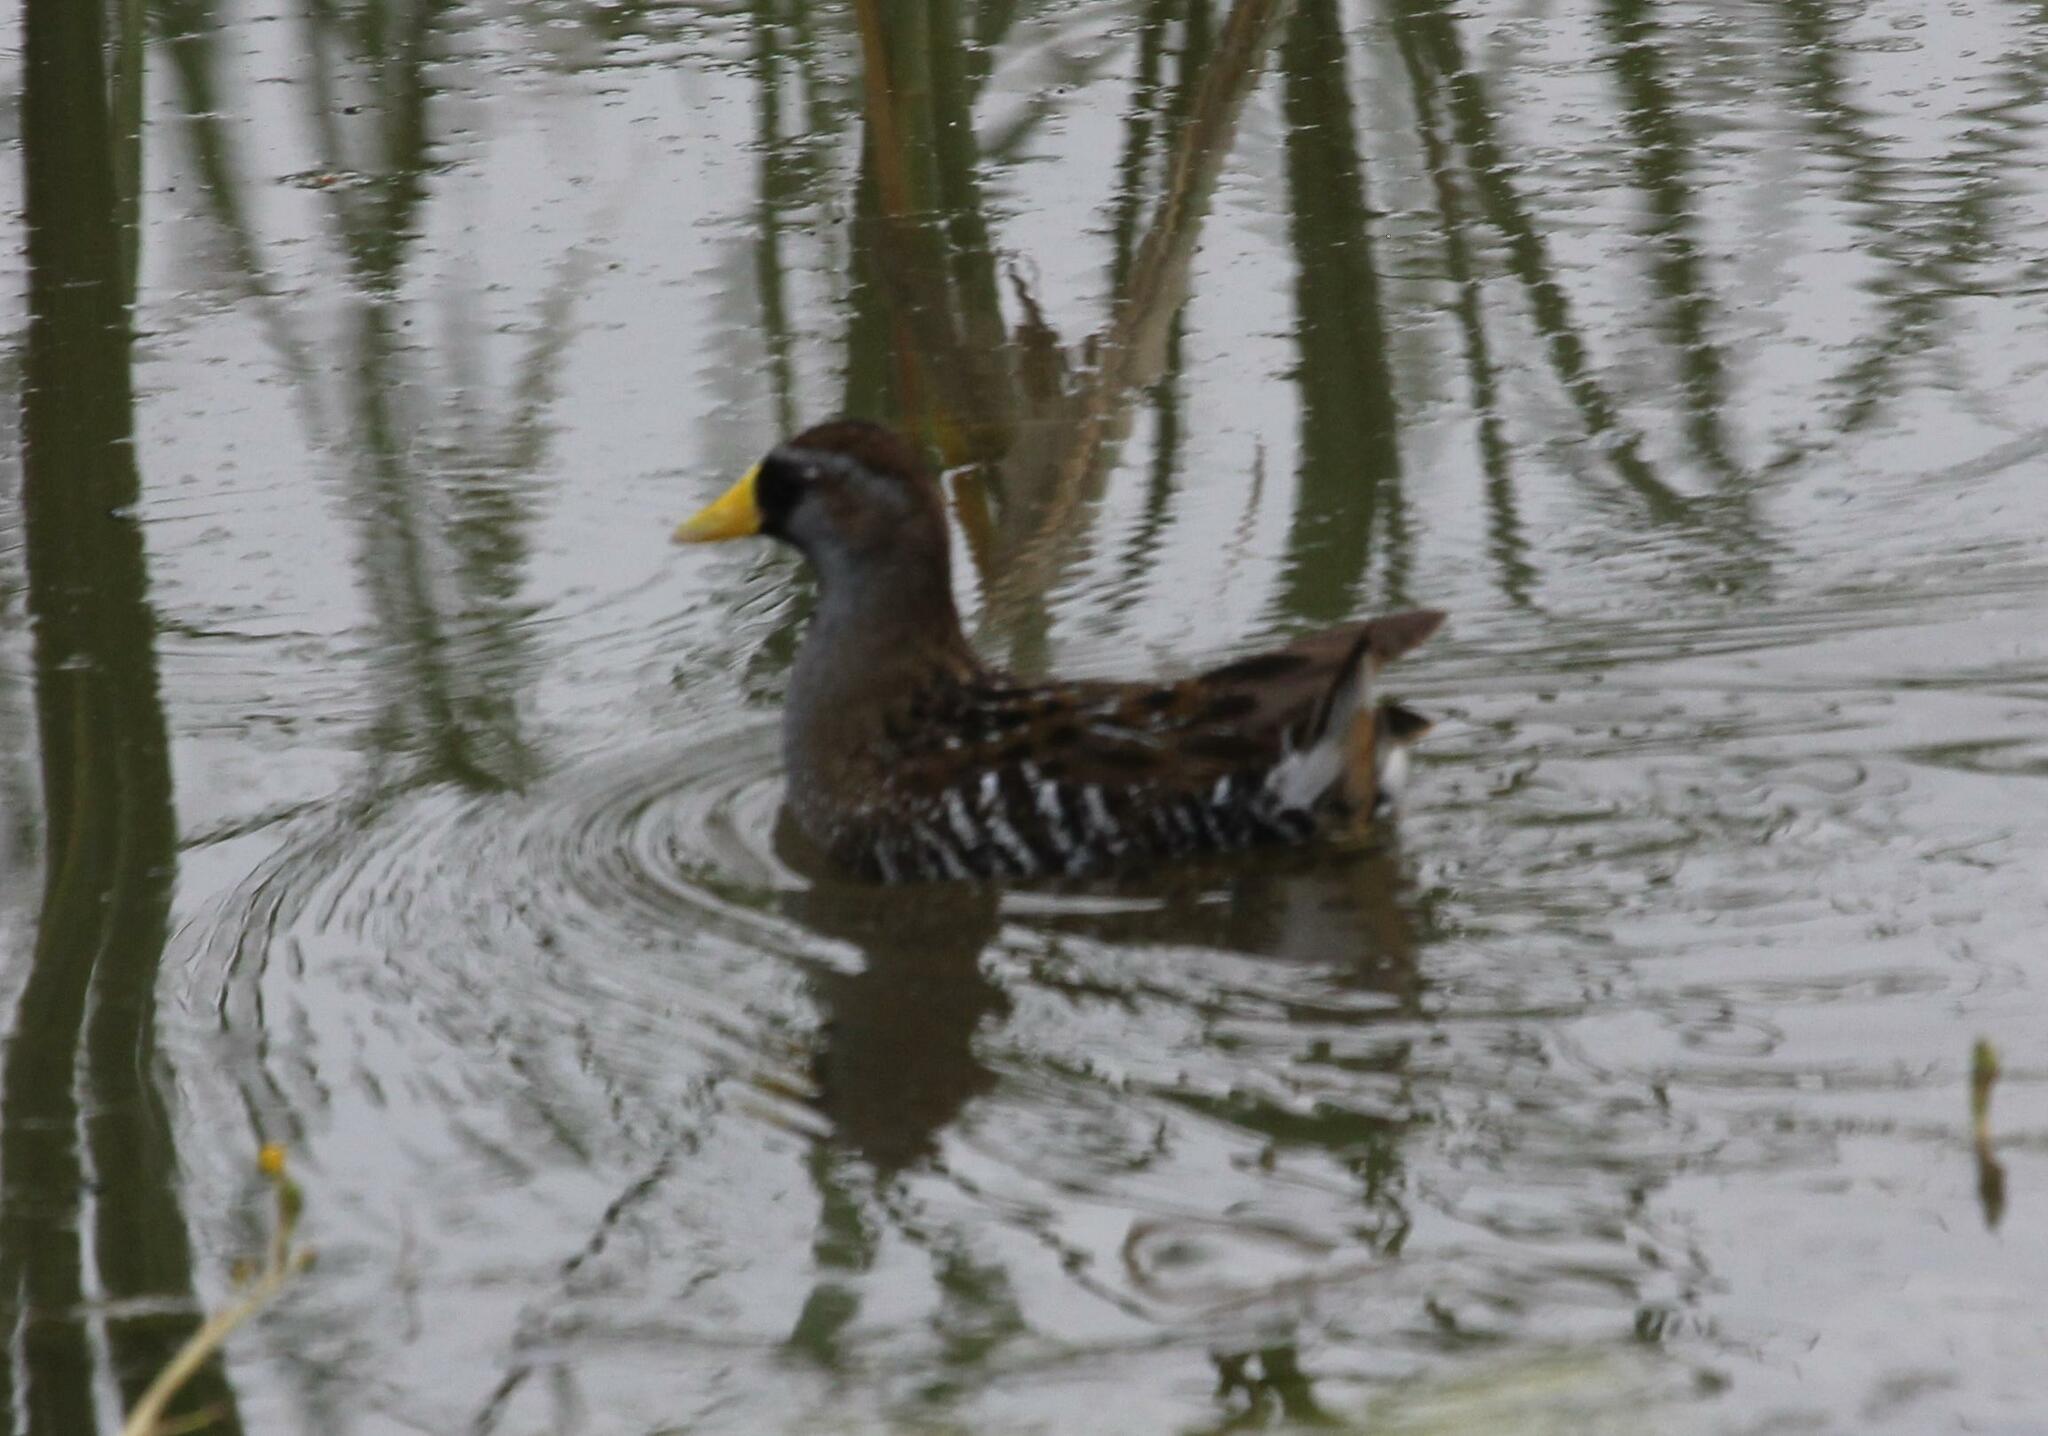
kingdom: Animalia
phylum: Chordata
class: Aves
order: Gruiformes
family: Rallidae
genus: Porzana
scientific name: Porzana carolina
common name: Sora
